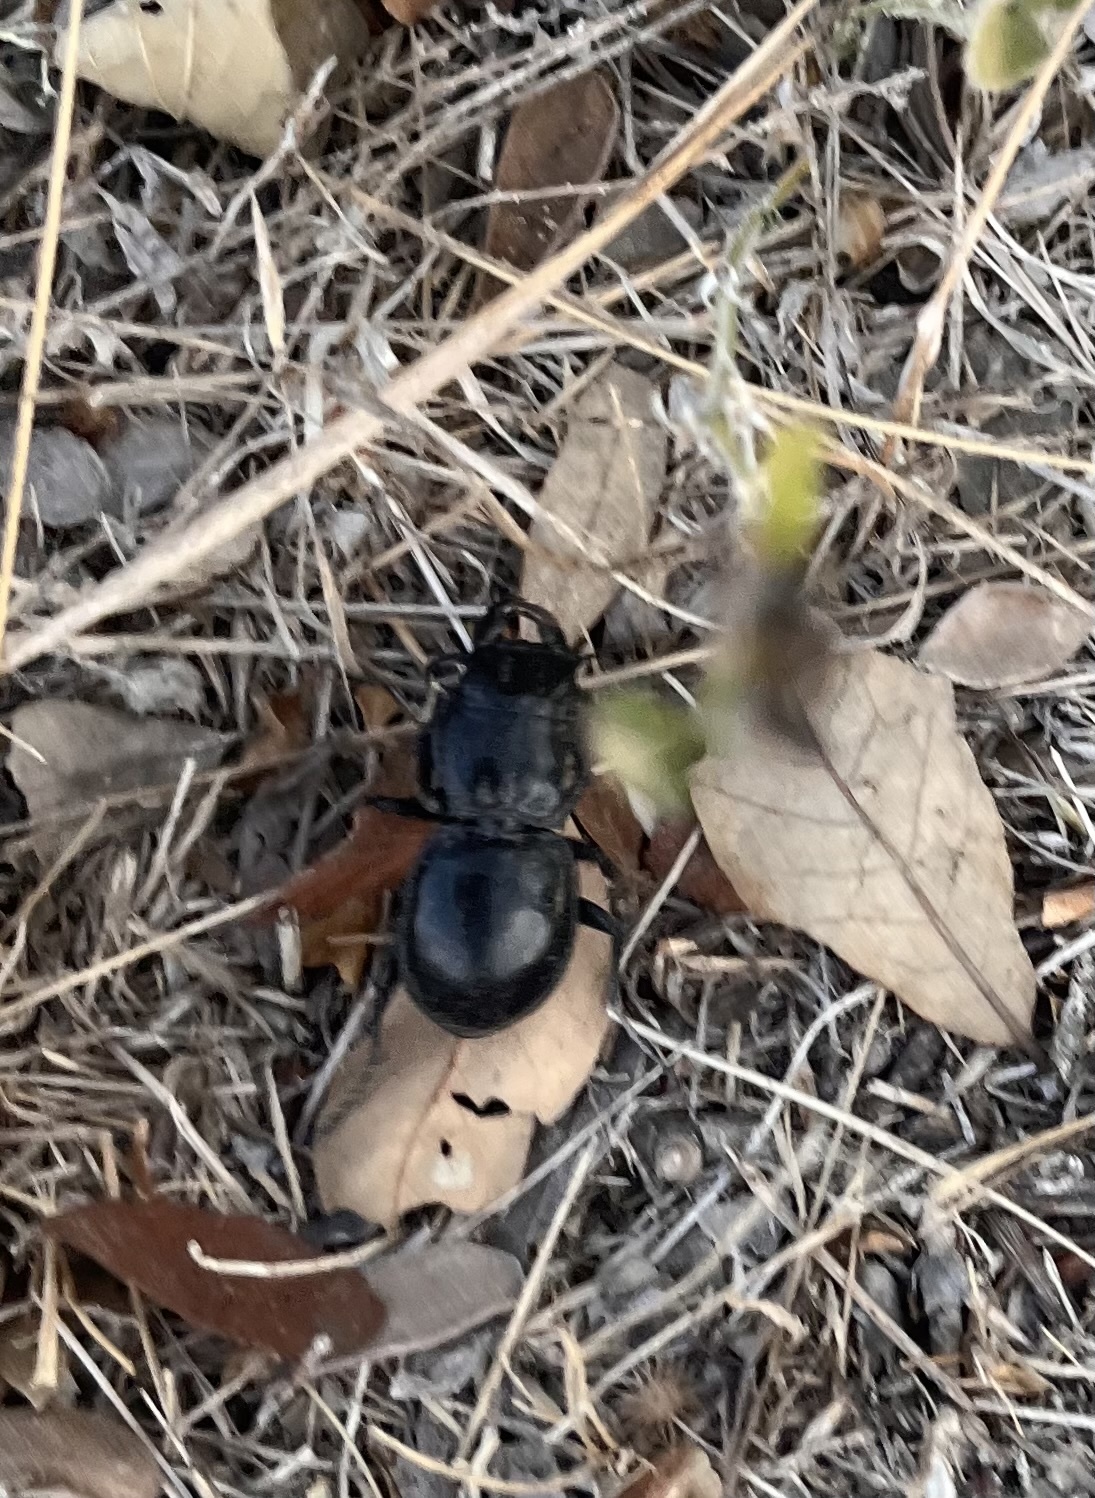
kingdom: Animalia
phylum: Arthropoda
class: Insecta
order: Coleoptera
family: Carabidae
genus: Pasimachus
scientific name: Pasimachus californicus
